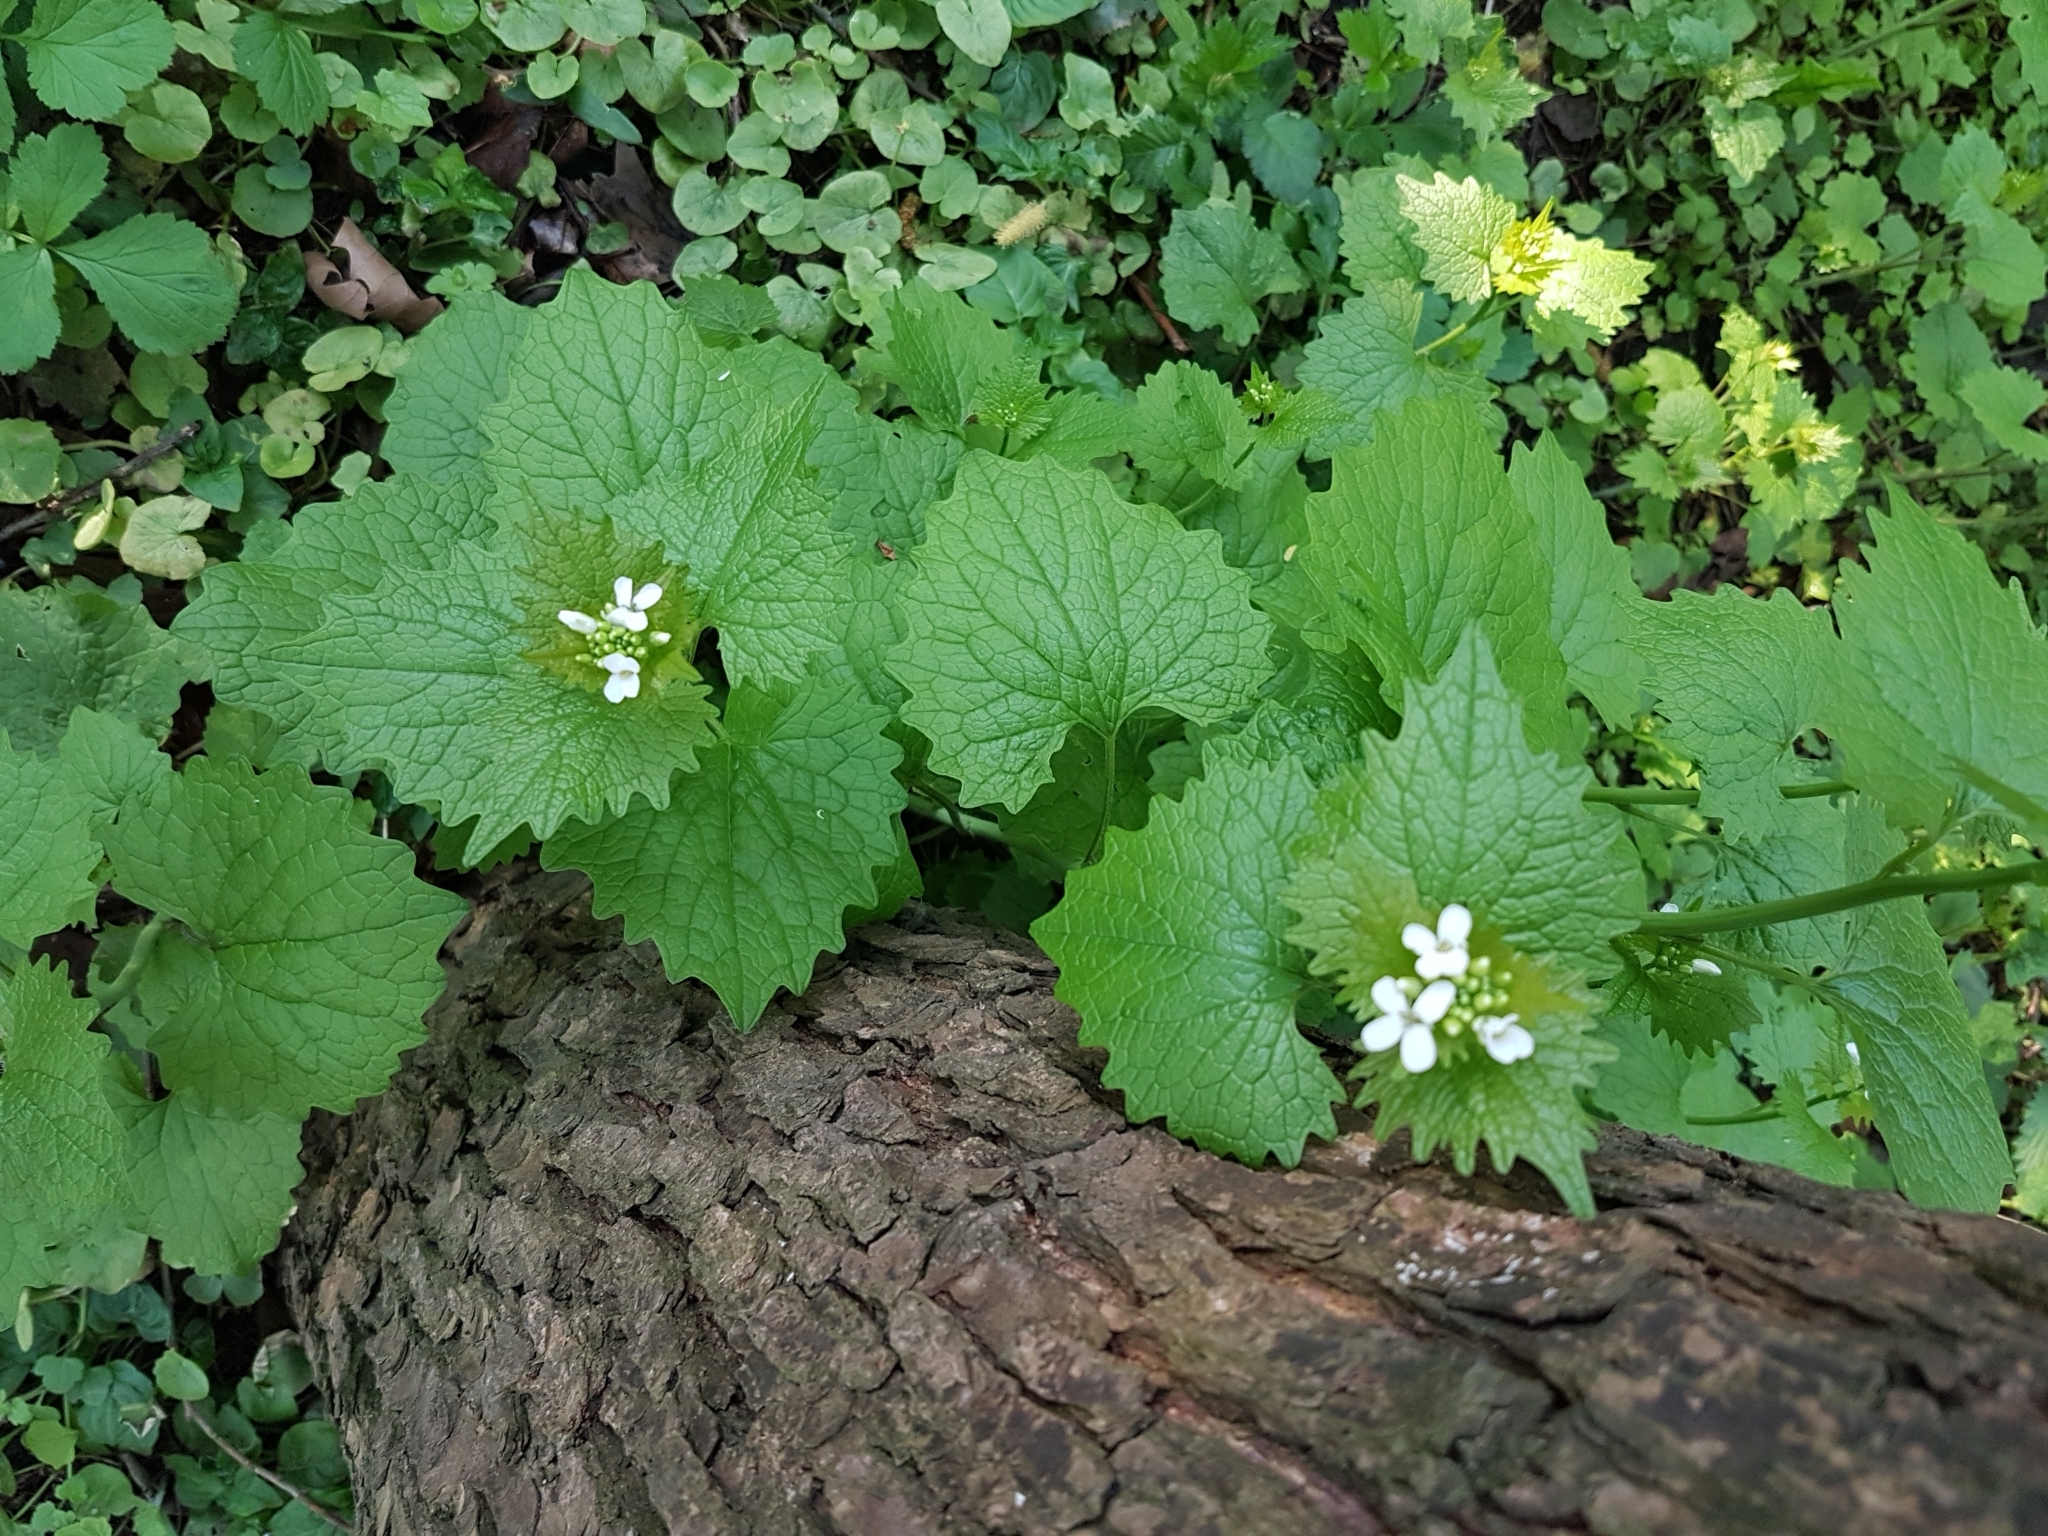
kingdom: Plantae
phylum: Tracheophyta
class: Magnoliopsida
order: Brassicales
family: Brassicaceae
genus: Alliaria
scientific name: Alliaria petiolata
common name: Garlic mustard
